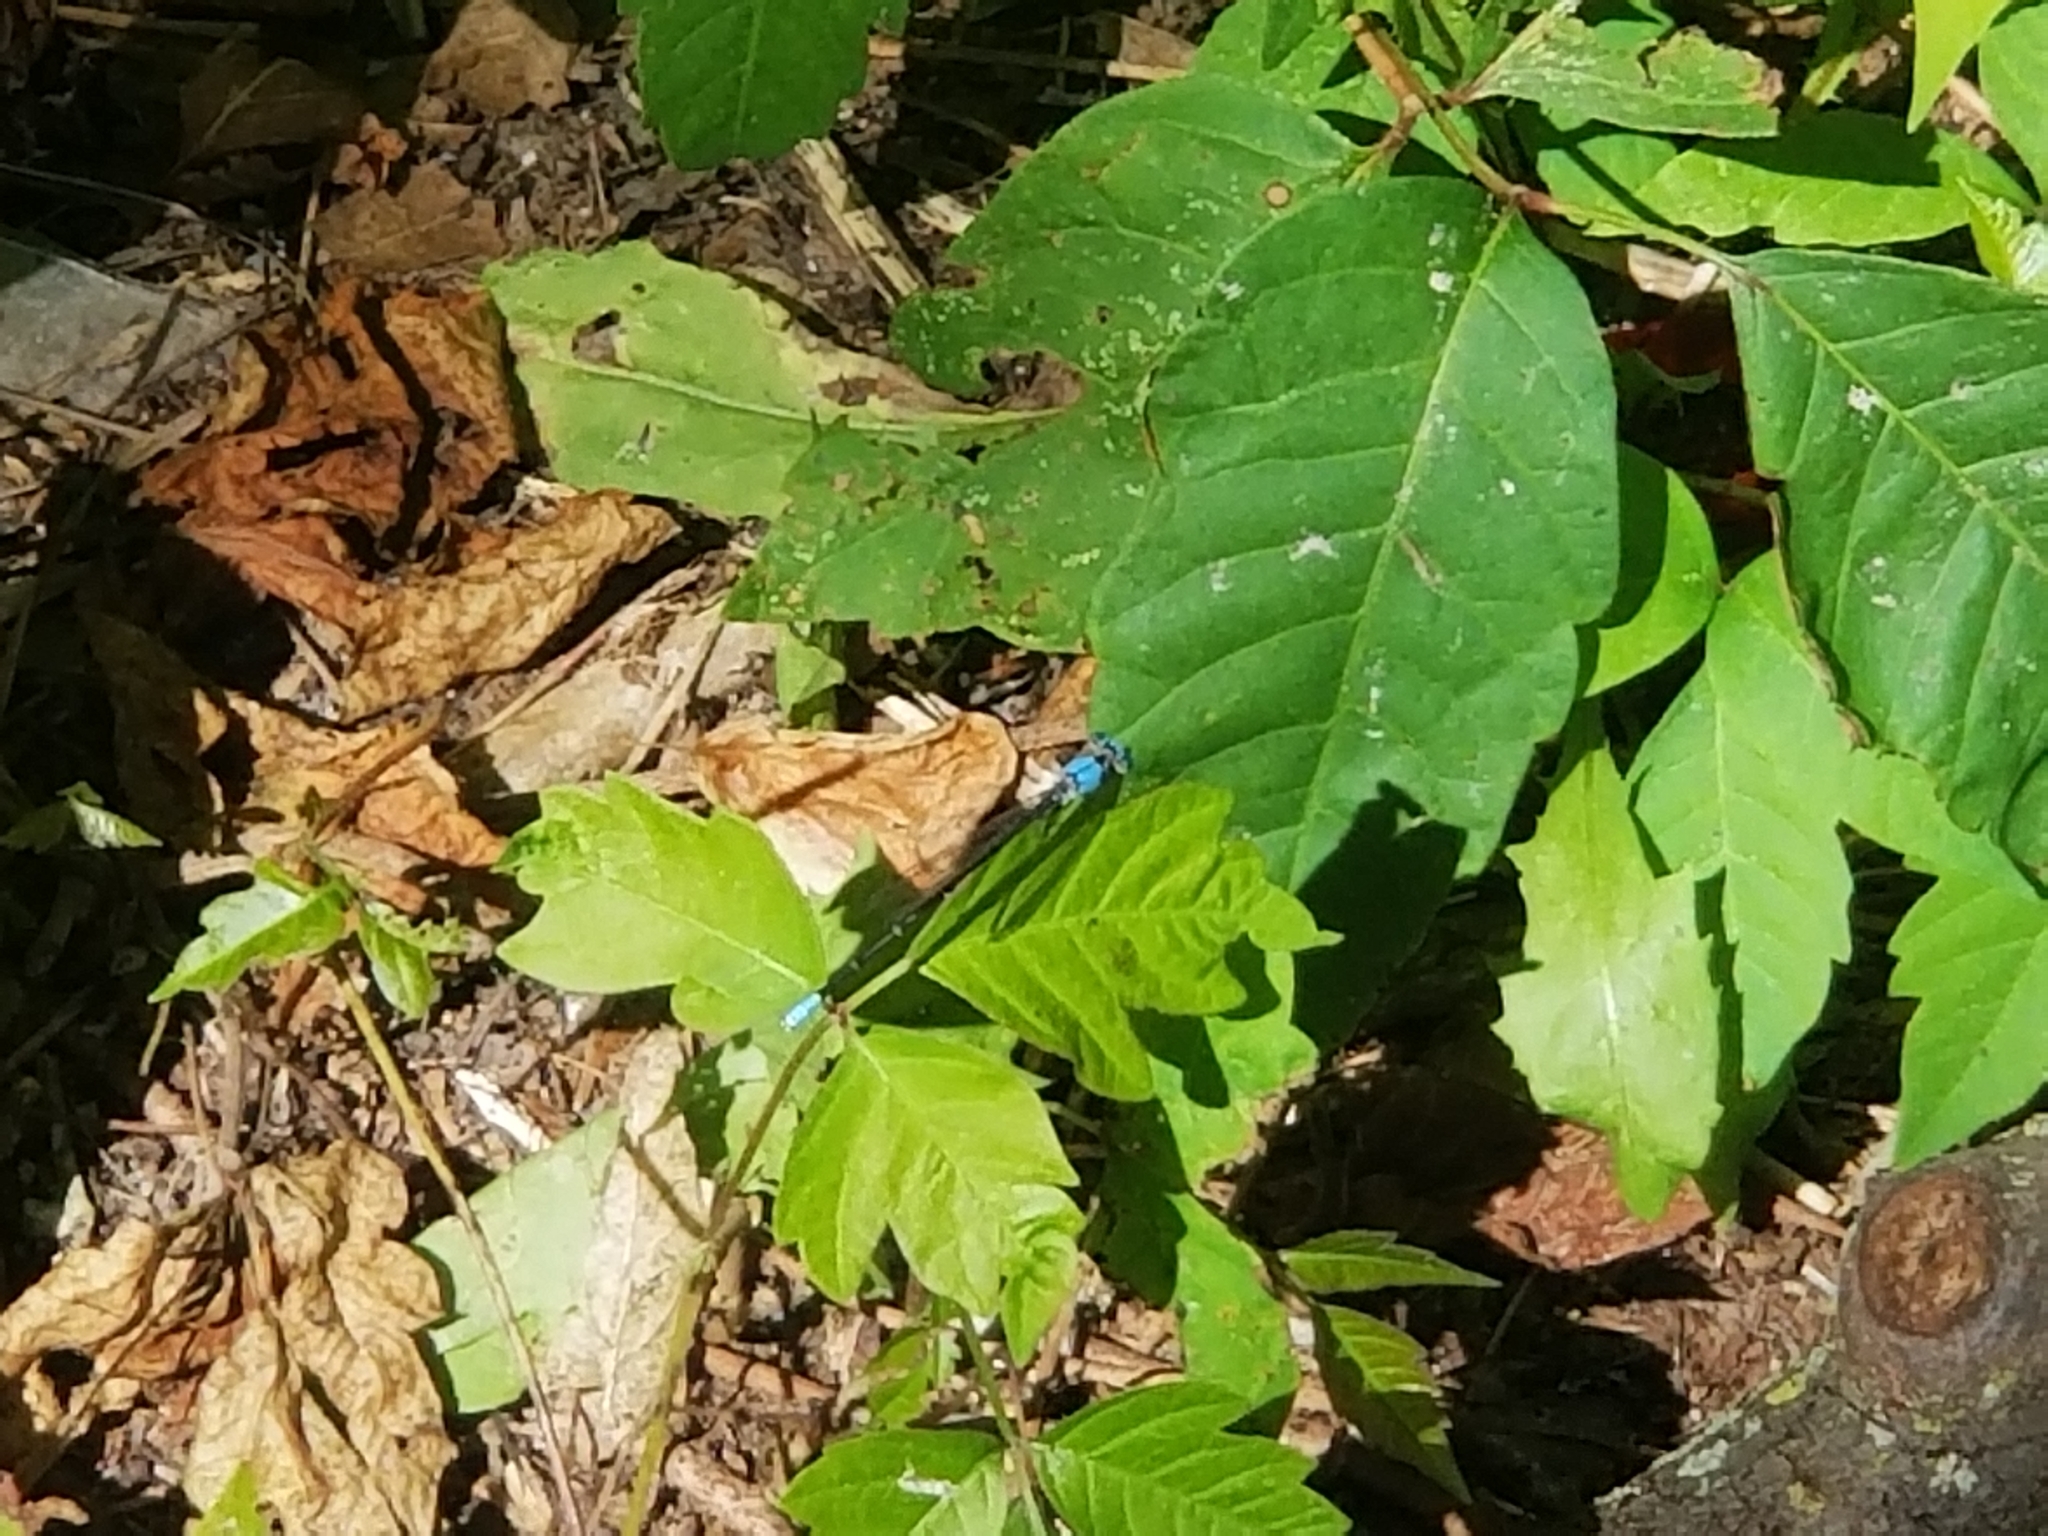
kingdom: Animalia
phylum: Arthropoda
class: Insecta
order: Odonata
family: Coenagrionidae
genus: Argia
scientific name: Argia apicalis
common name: Blue-fronted dancer
